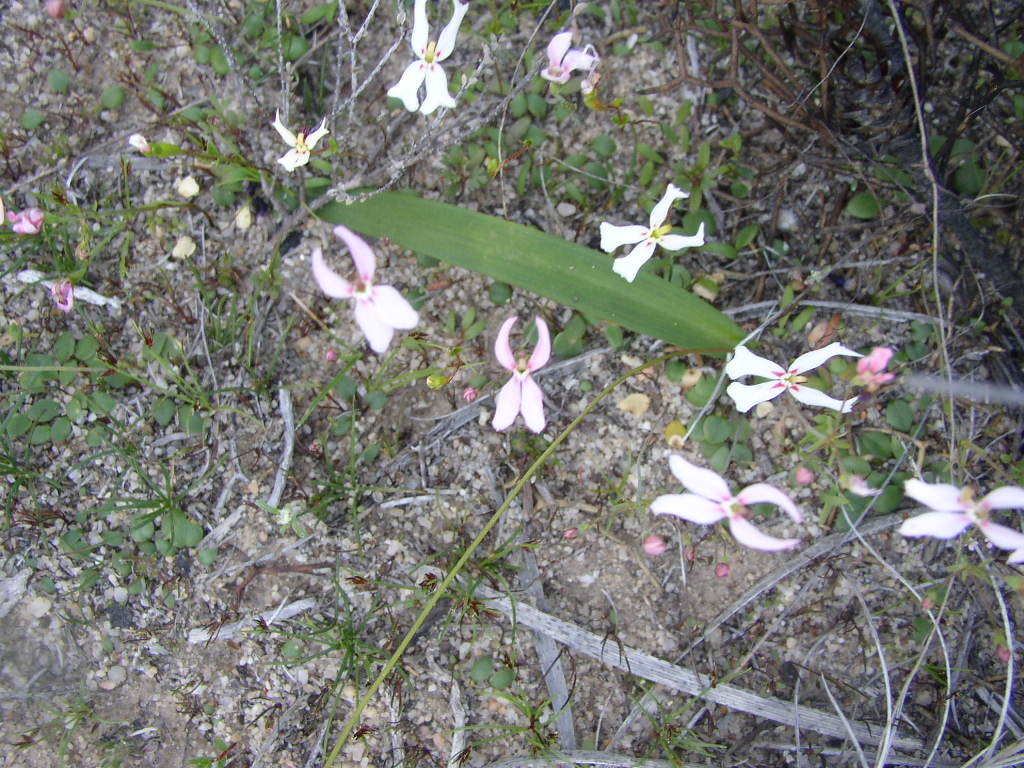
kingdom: Plantae
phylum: Tracheophyta
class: Magnoliopsida
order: Asterales
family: Stylidiaceae
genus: Stylidium
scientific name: Stylidium petiolare
